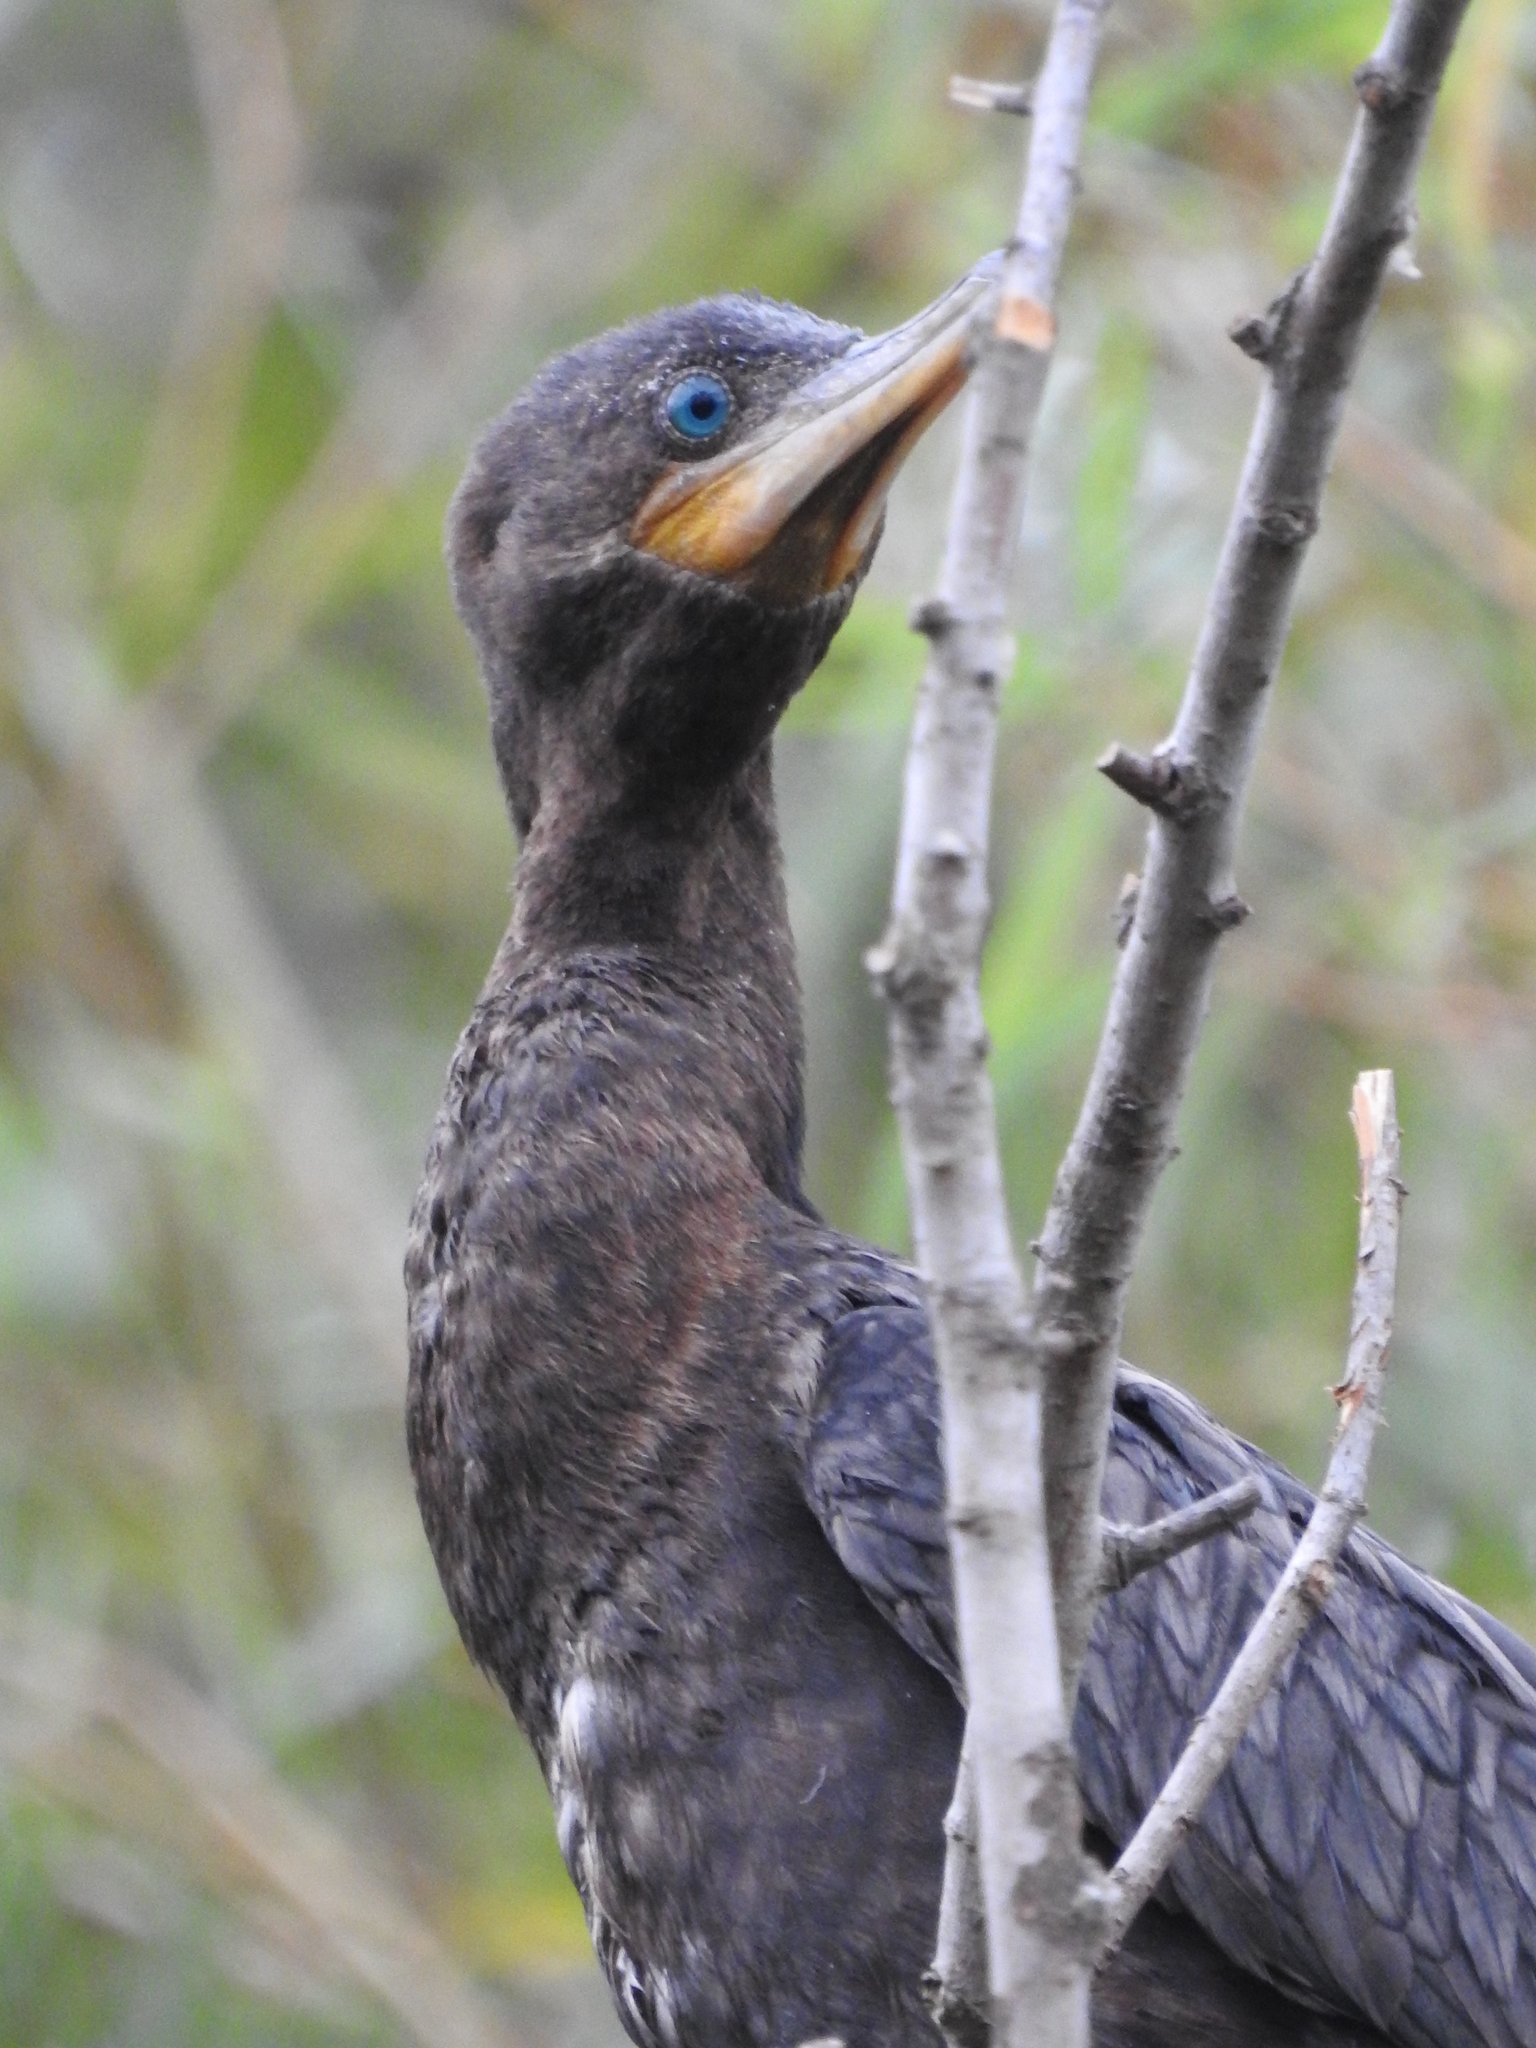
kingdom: Animalia
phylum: Chordata
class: Aves
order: Suliformes
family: Phalacrocoracidae
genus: Phalacrocorax
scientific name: Phalacrocorax brasilianus
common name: Neotropic cormorant
